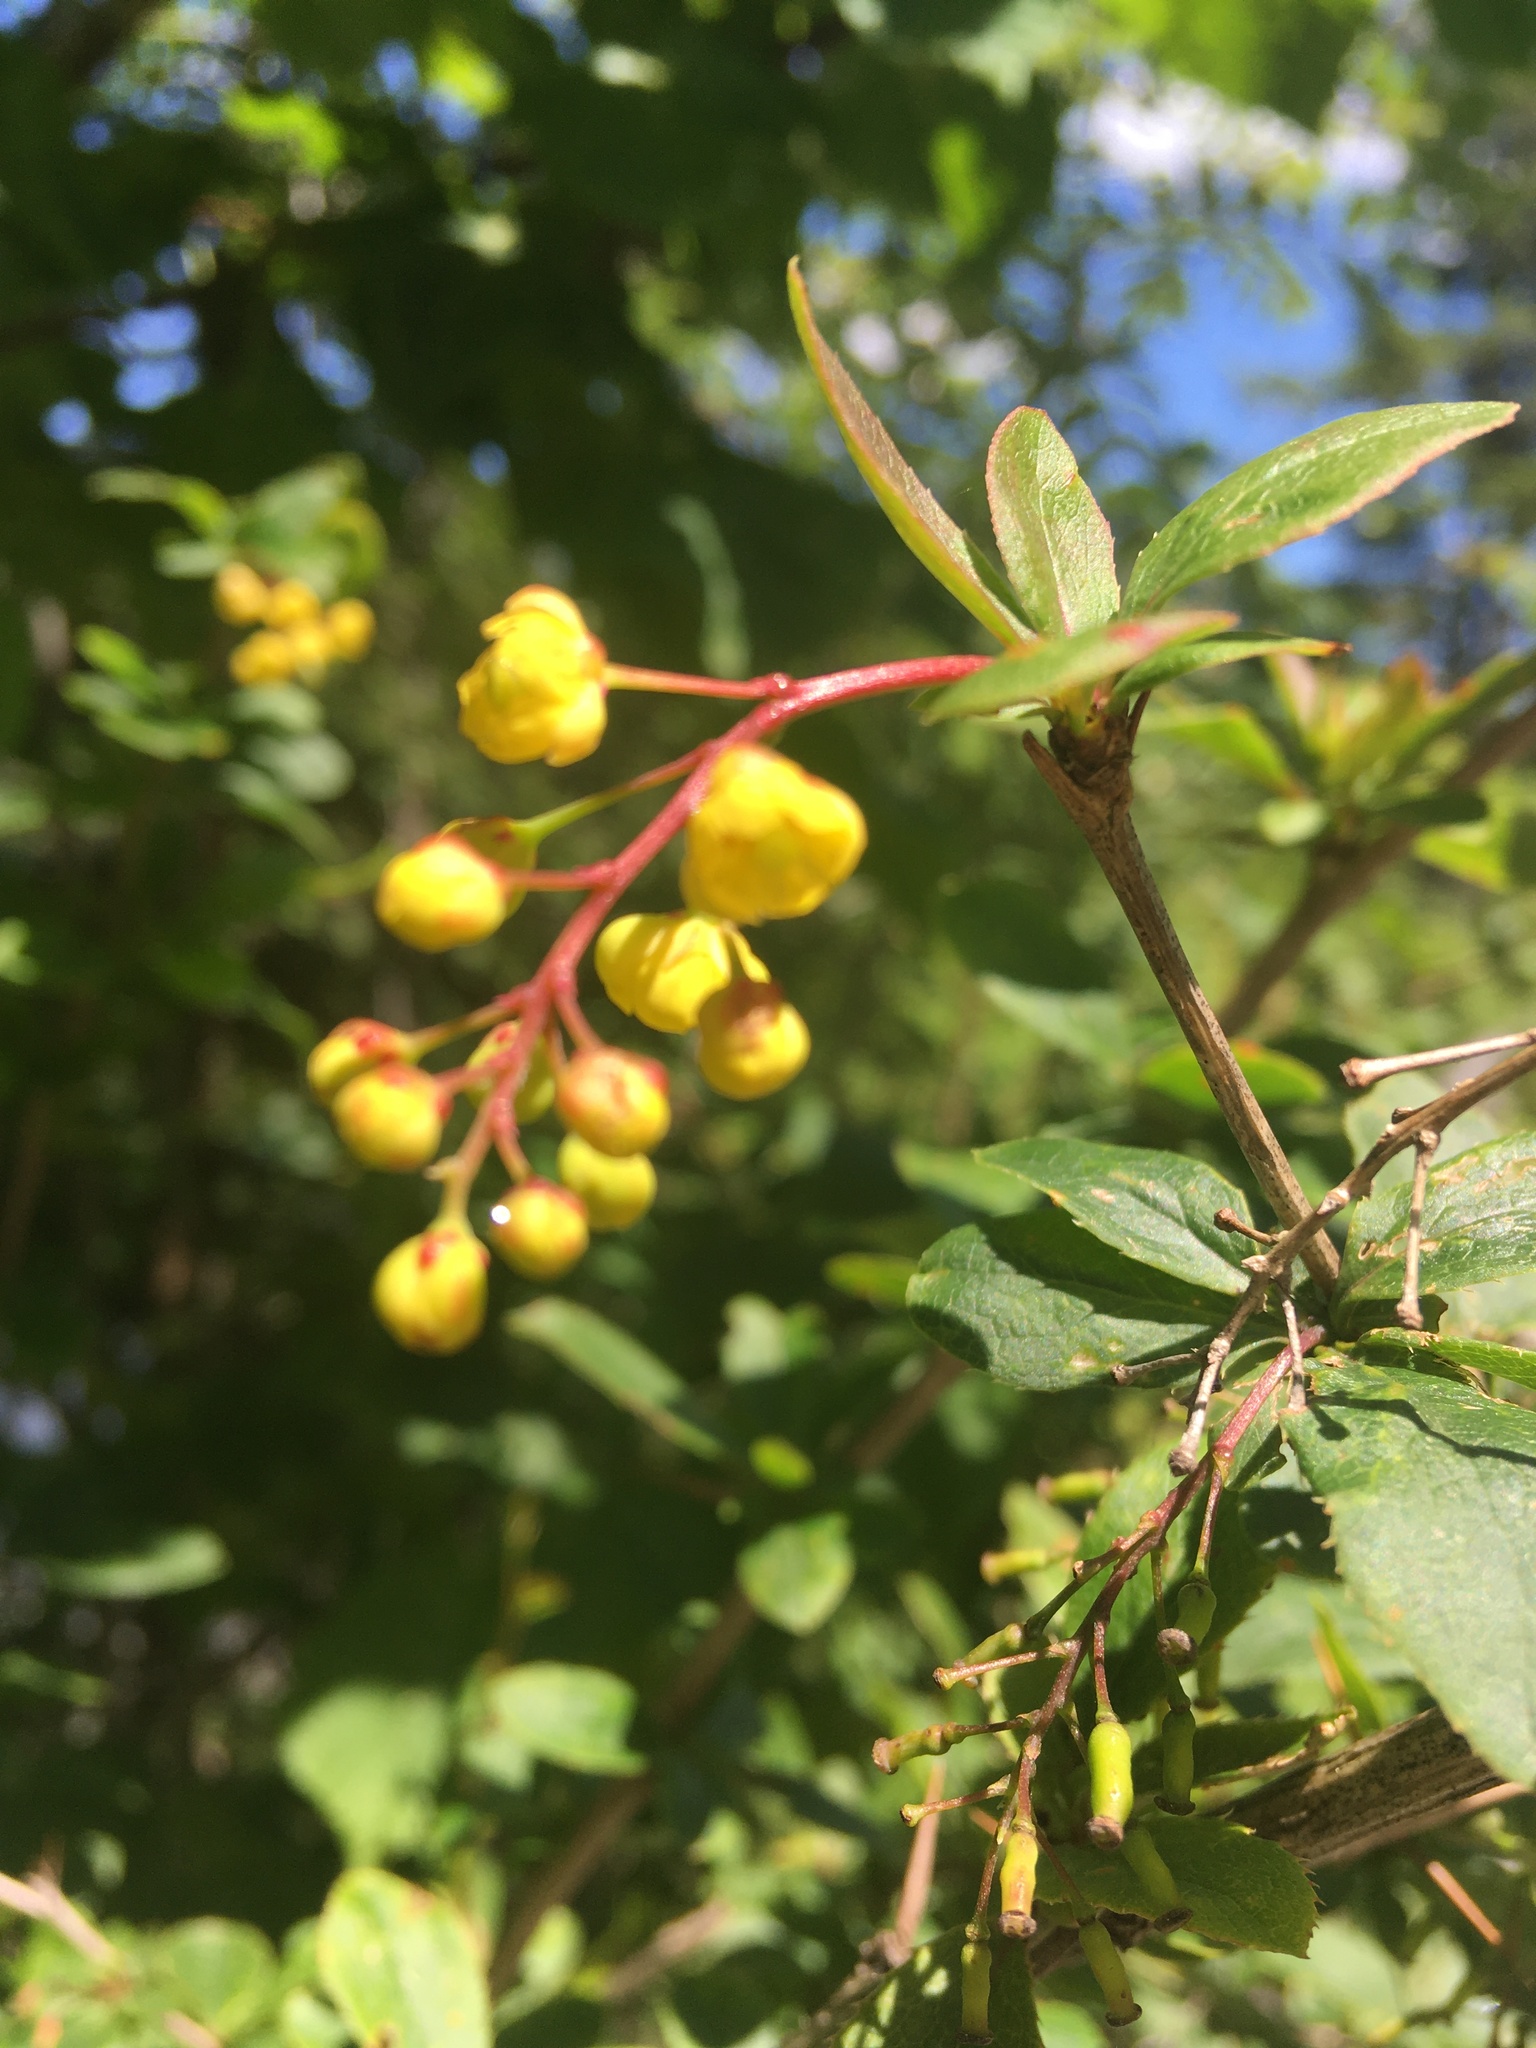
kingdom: Plantae
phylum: Tracheophyta
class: Magnoliopsida
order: Ranunculales
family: Berberidaceae
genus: Berberis
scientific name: Berberis vulgaris
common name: Barberry
